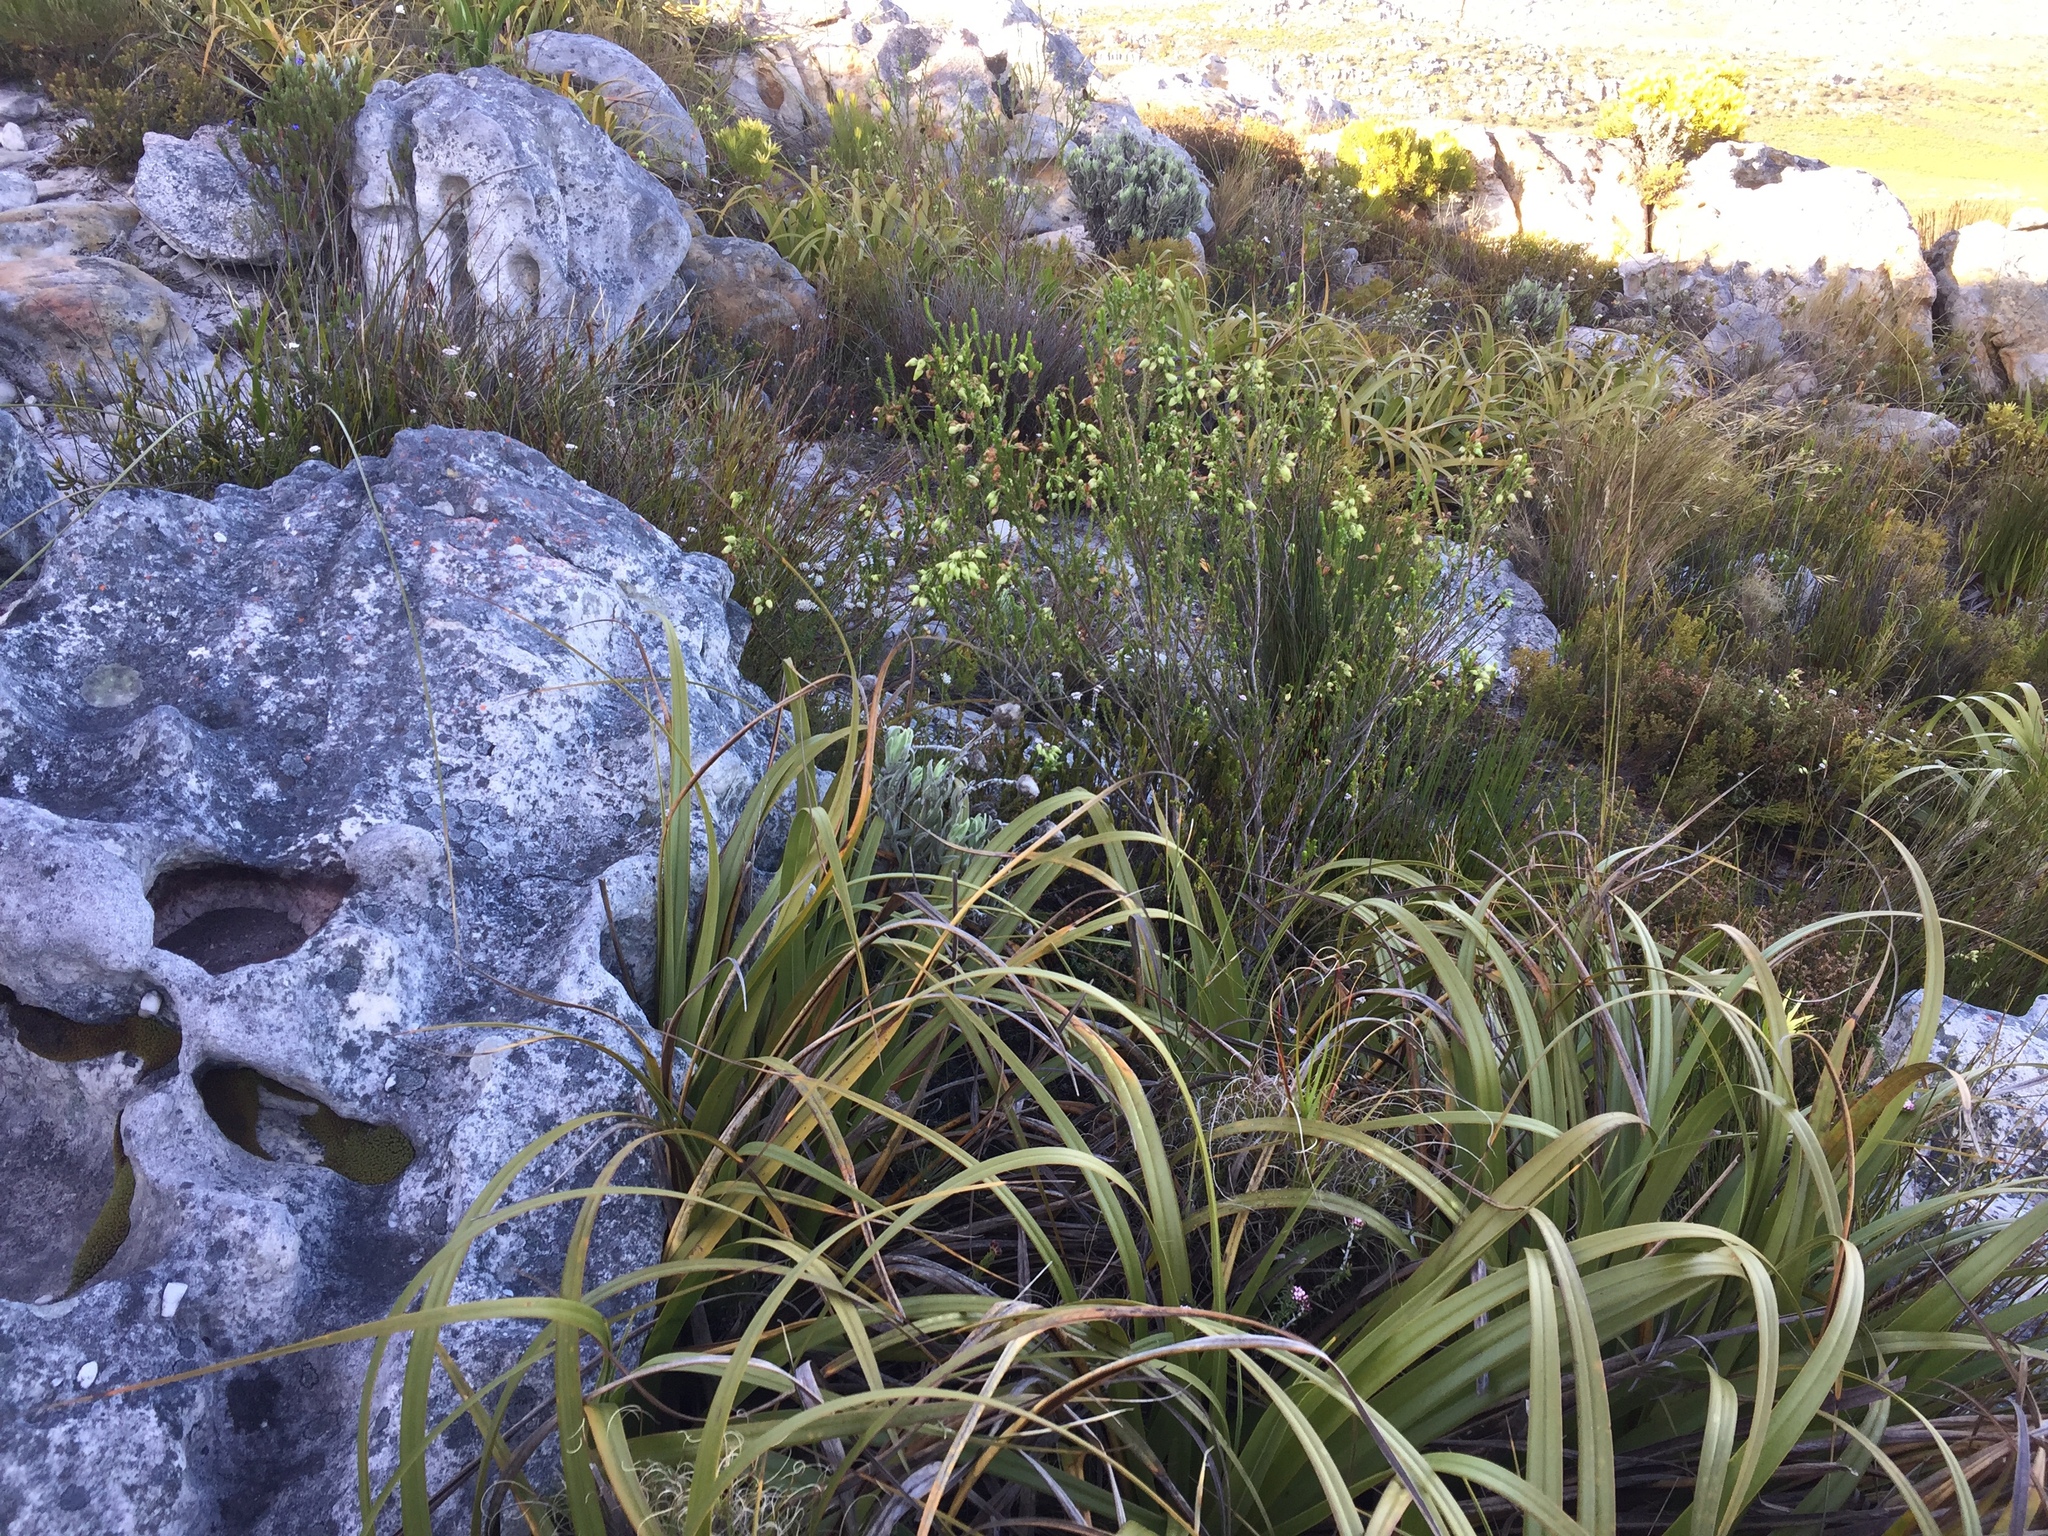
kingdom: Plantae
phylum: Tracheophyta
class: Magnoliopsida
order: Ericales
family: Ericaceae
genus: Erica
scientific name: Erica urna-viridis
